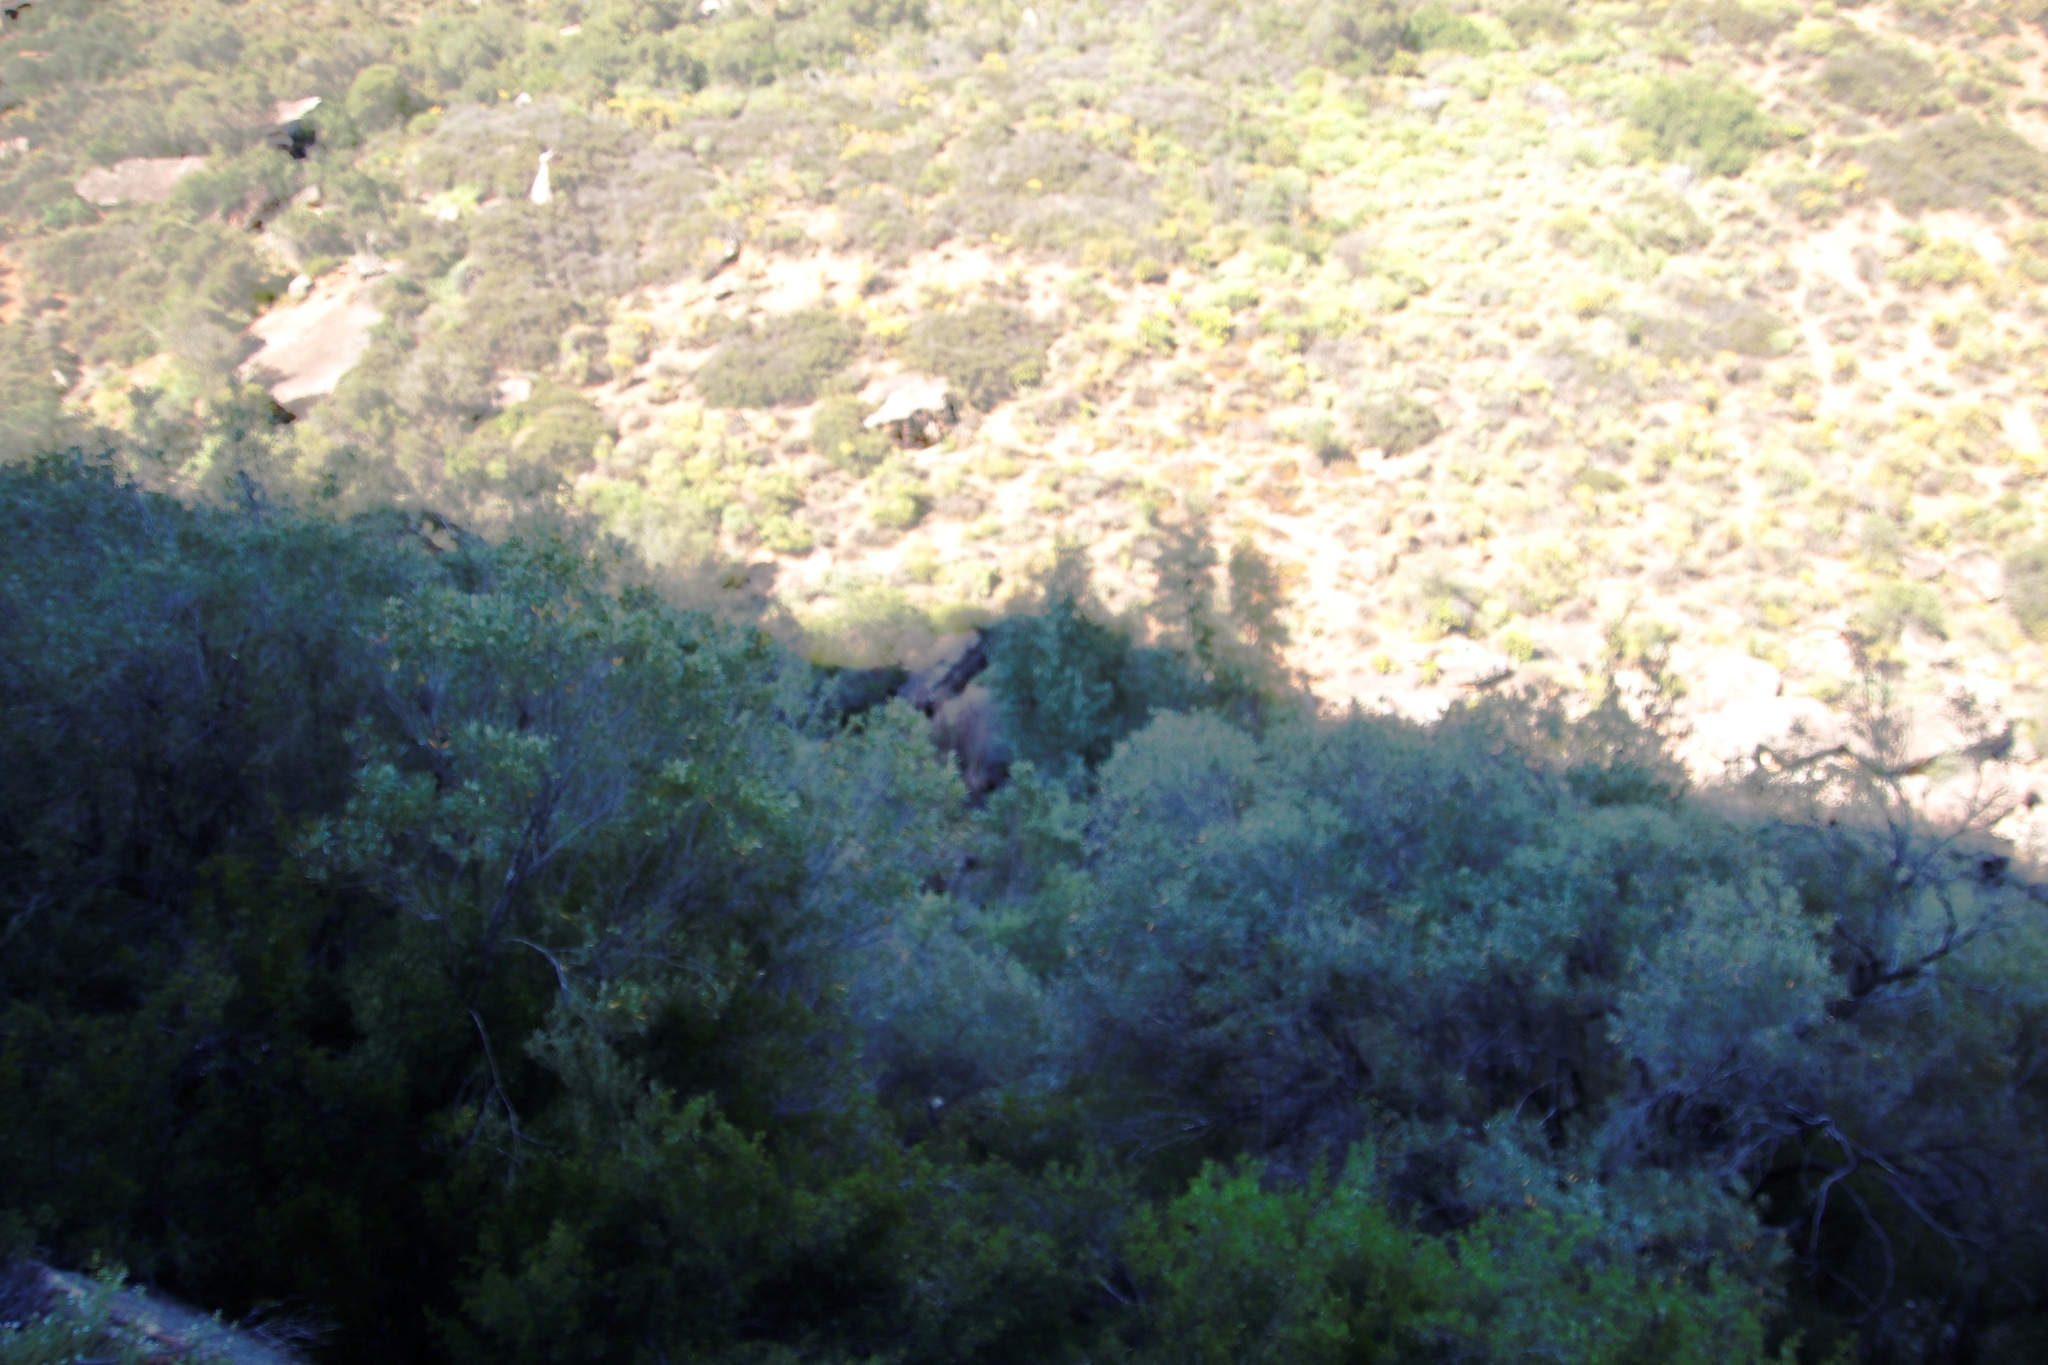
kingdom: Plantae
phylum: Tracheophyta
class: Magnoliopsida
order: Myrtales
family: Myrtaceae
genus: Eucalyptus
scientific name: Eucalyptus camaldulensis
